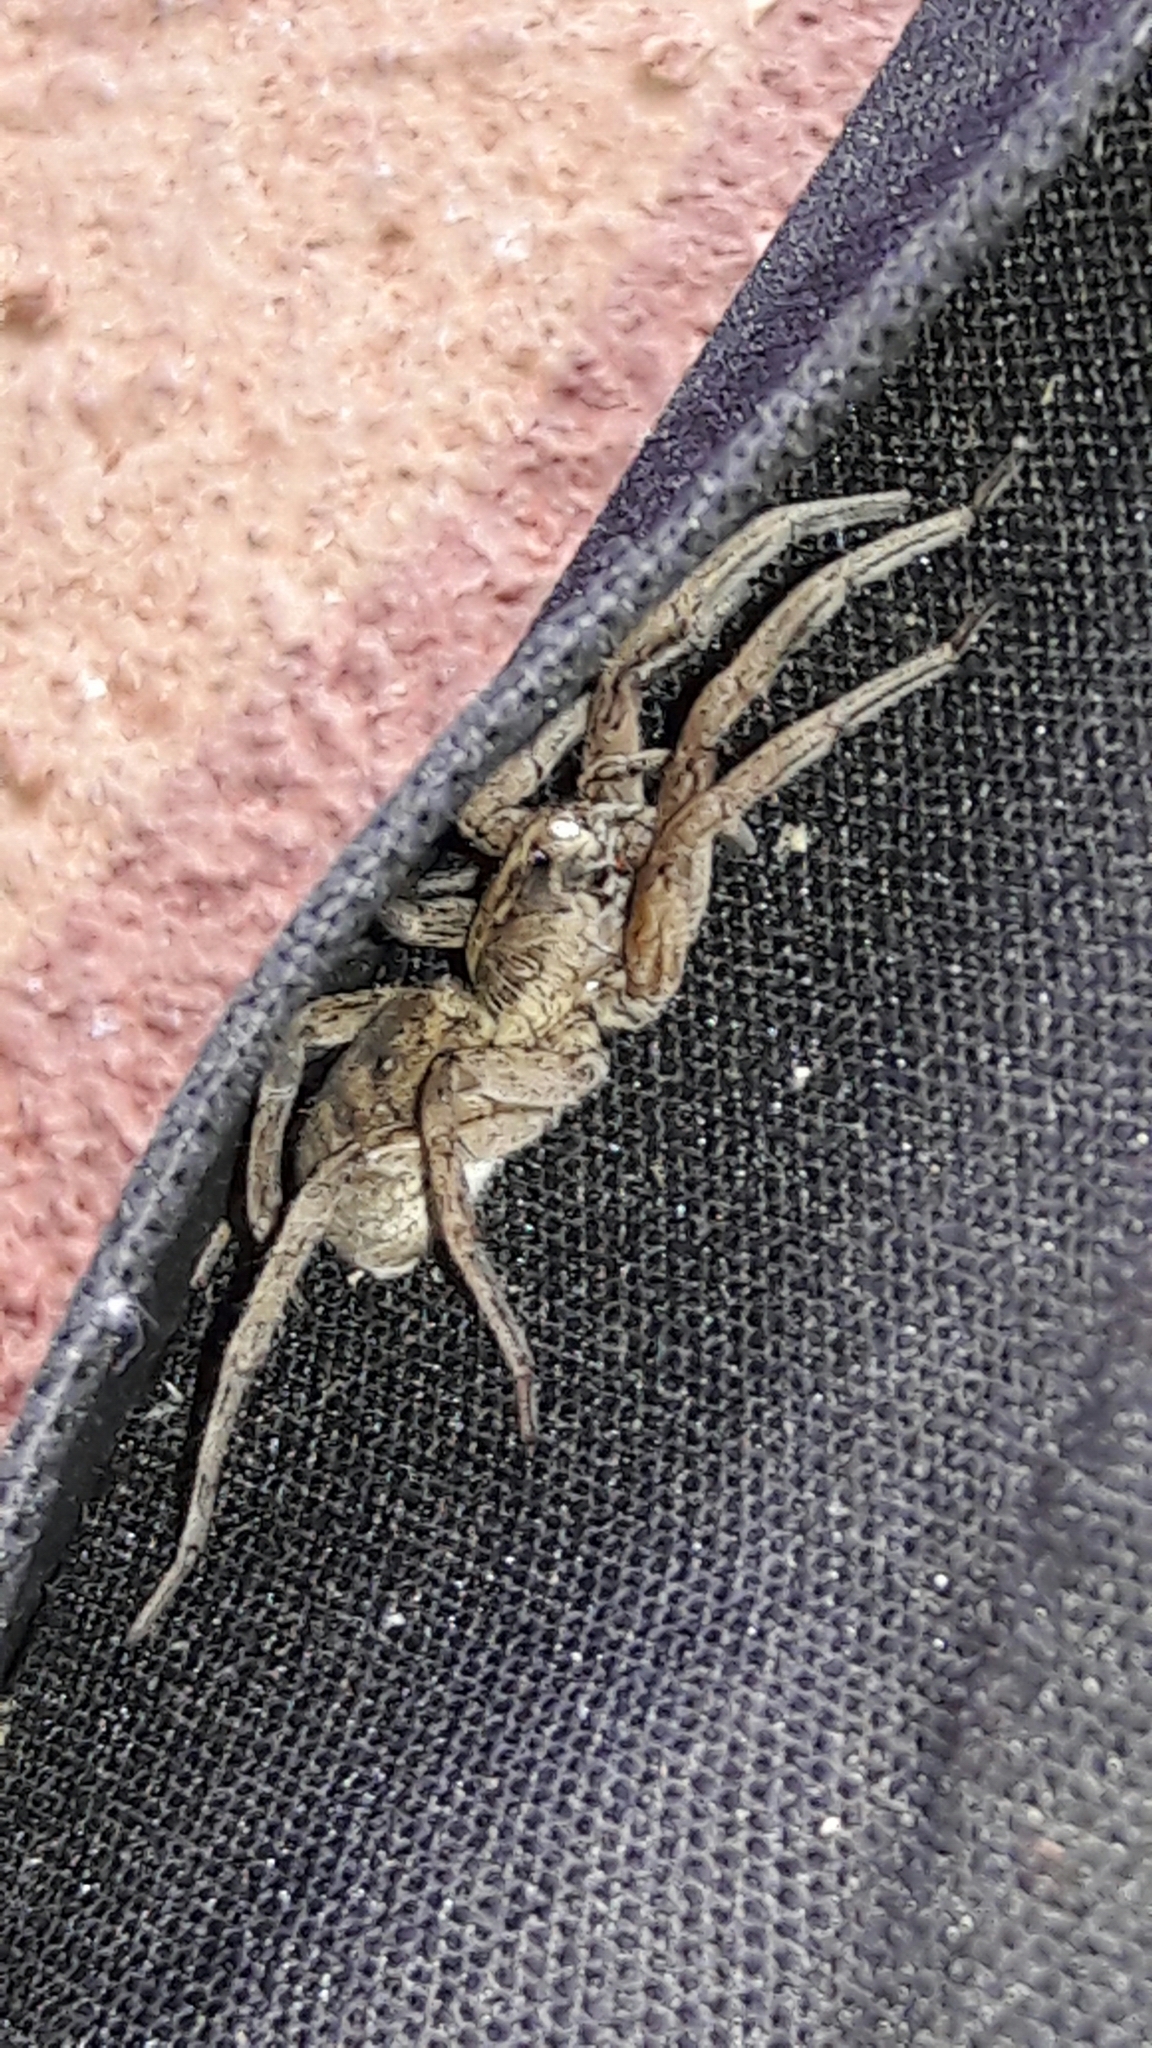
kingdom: Animalia
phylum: Arthropoda
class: Arachnida
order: Araneae
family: Lycosidae
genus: Lycosa
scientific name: Lycosa nordenskjoldi
